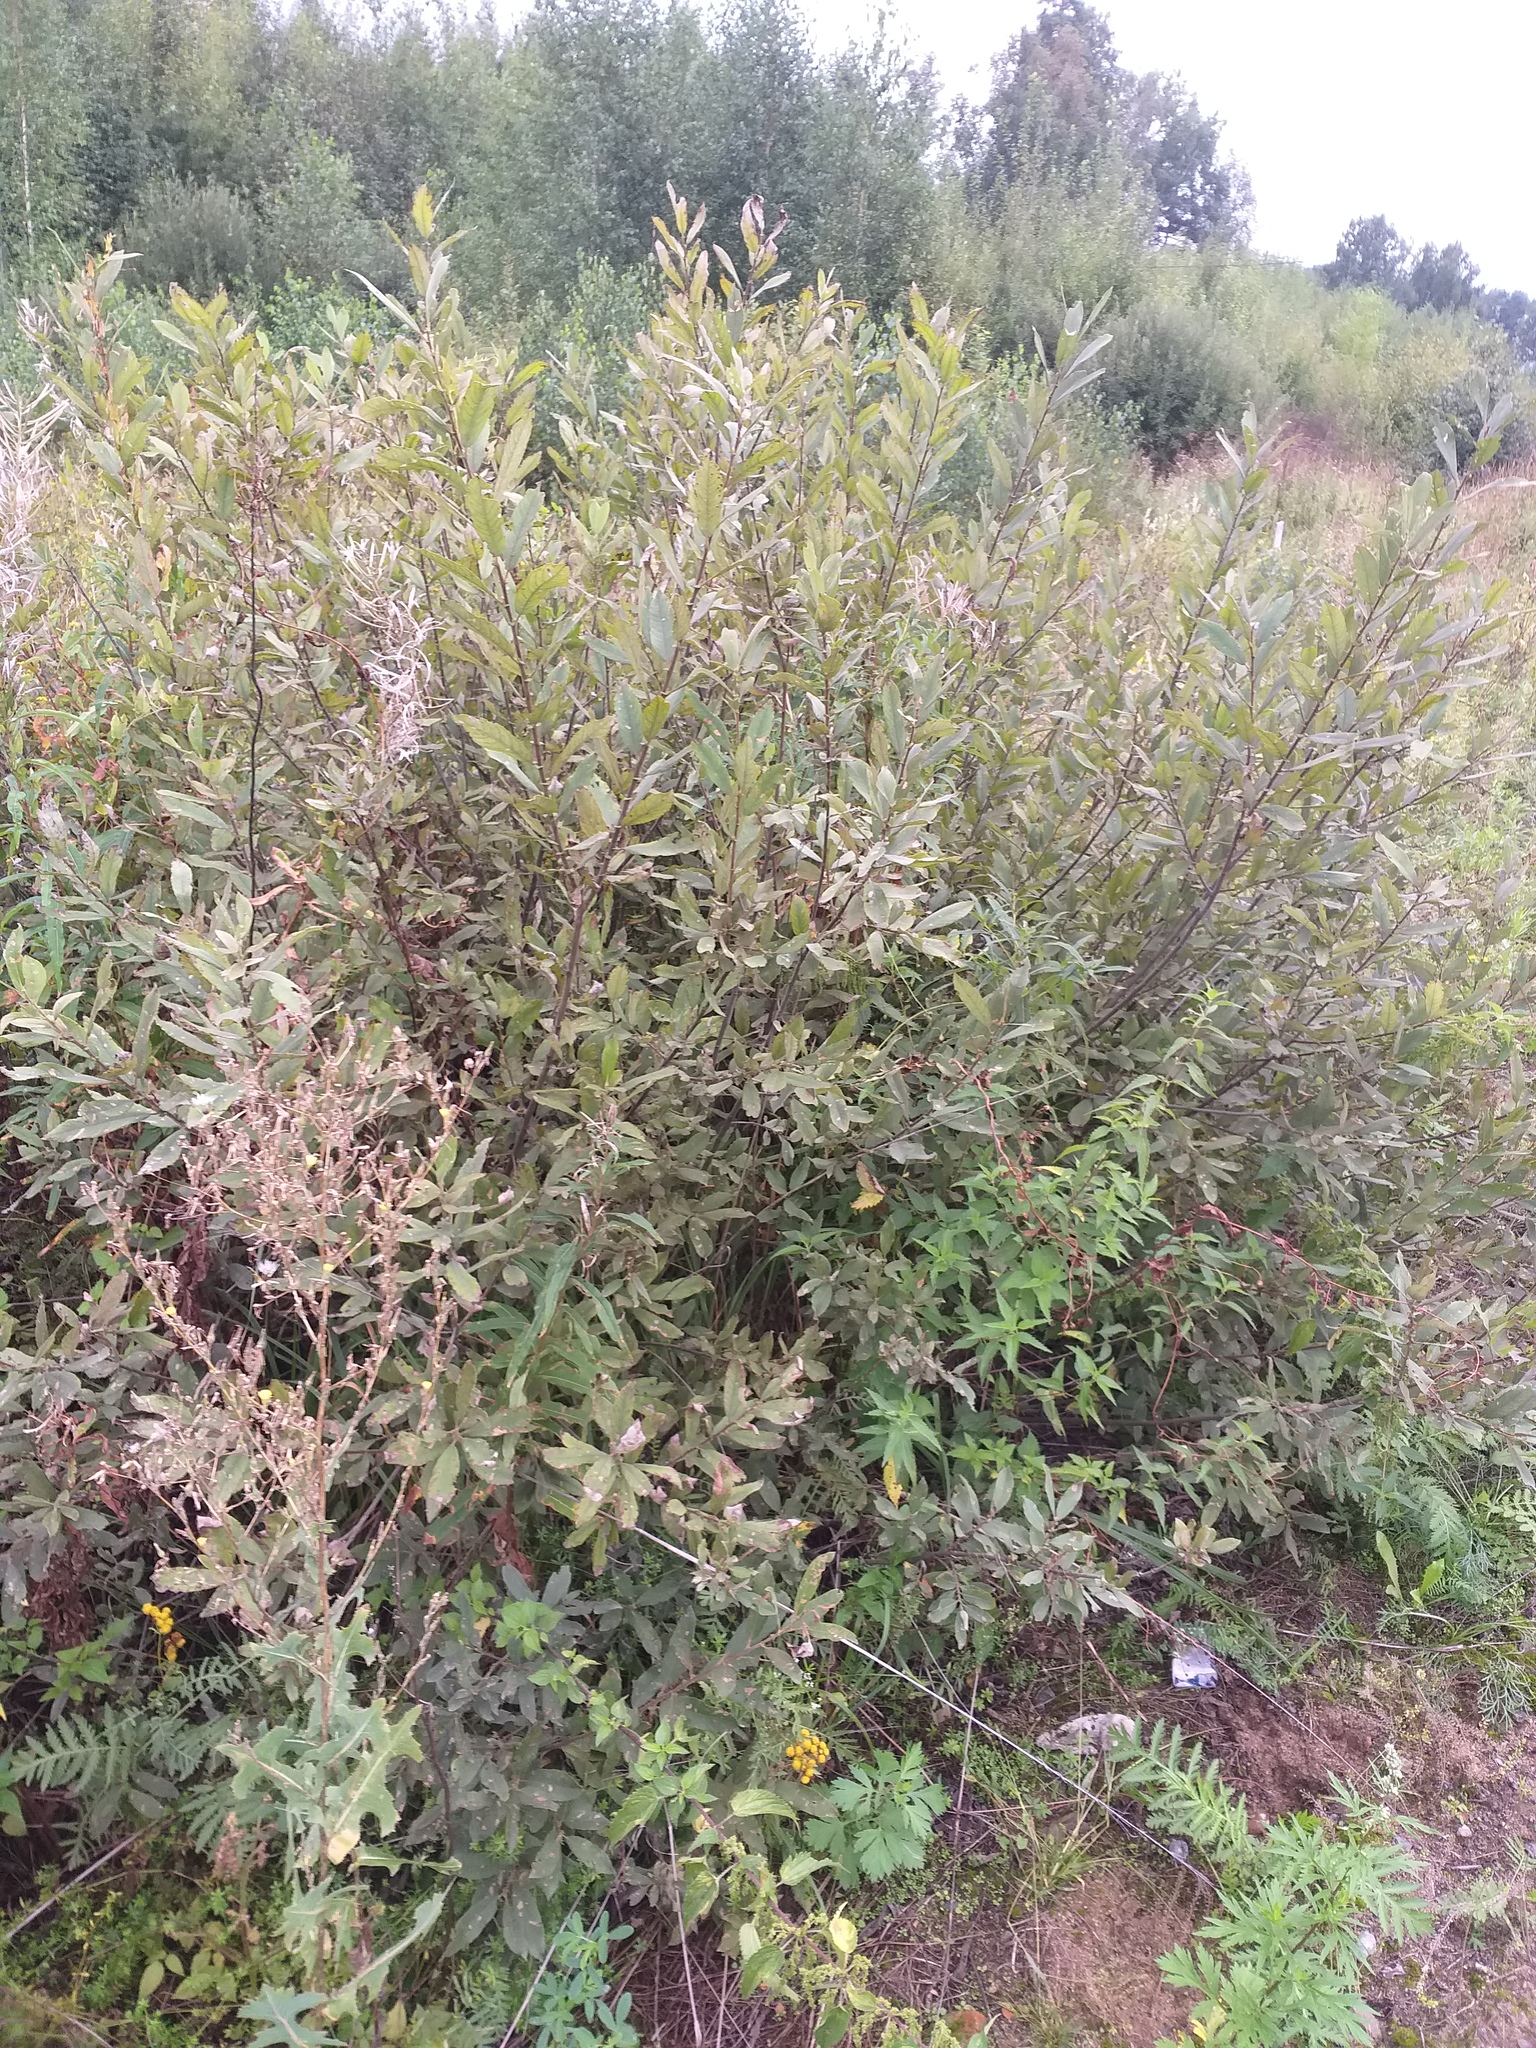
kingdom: Plantae
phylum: Tracheophyta
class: Magnoliopsida
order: Malpighiales
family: Salicaceae
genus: Salix
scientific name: Salix cinerea
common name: Common sallow
